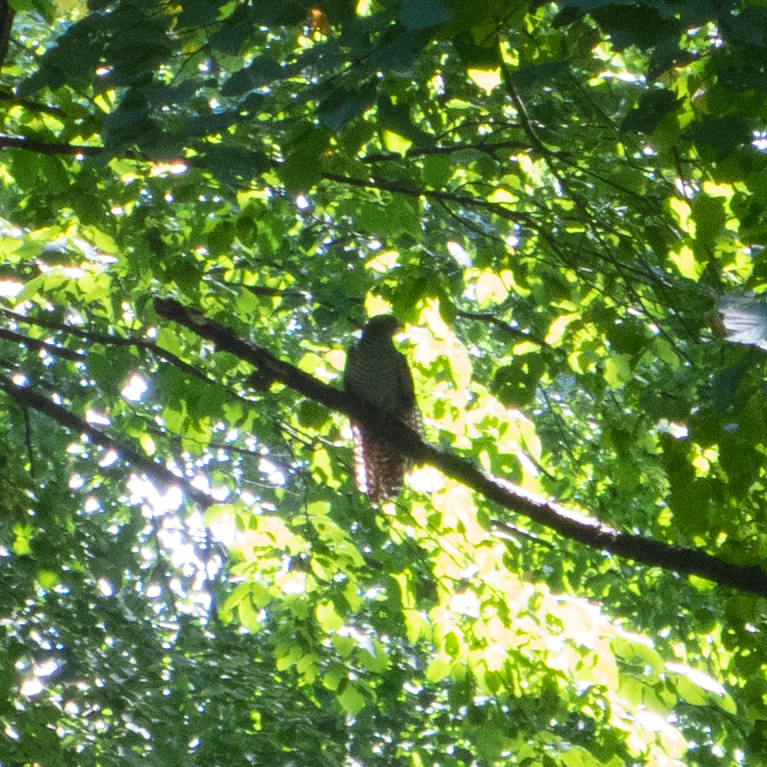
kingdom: Animalia
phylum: Chordata
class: Aves
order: Cuculiformes
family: Cuculidae
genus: Cuculus
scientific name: Cuculus canorus
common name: Common cuckoo
